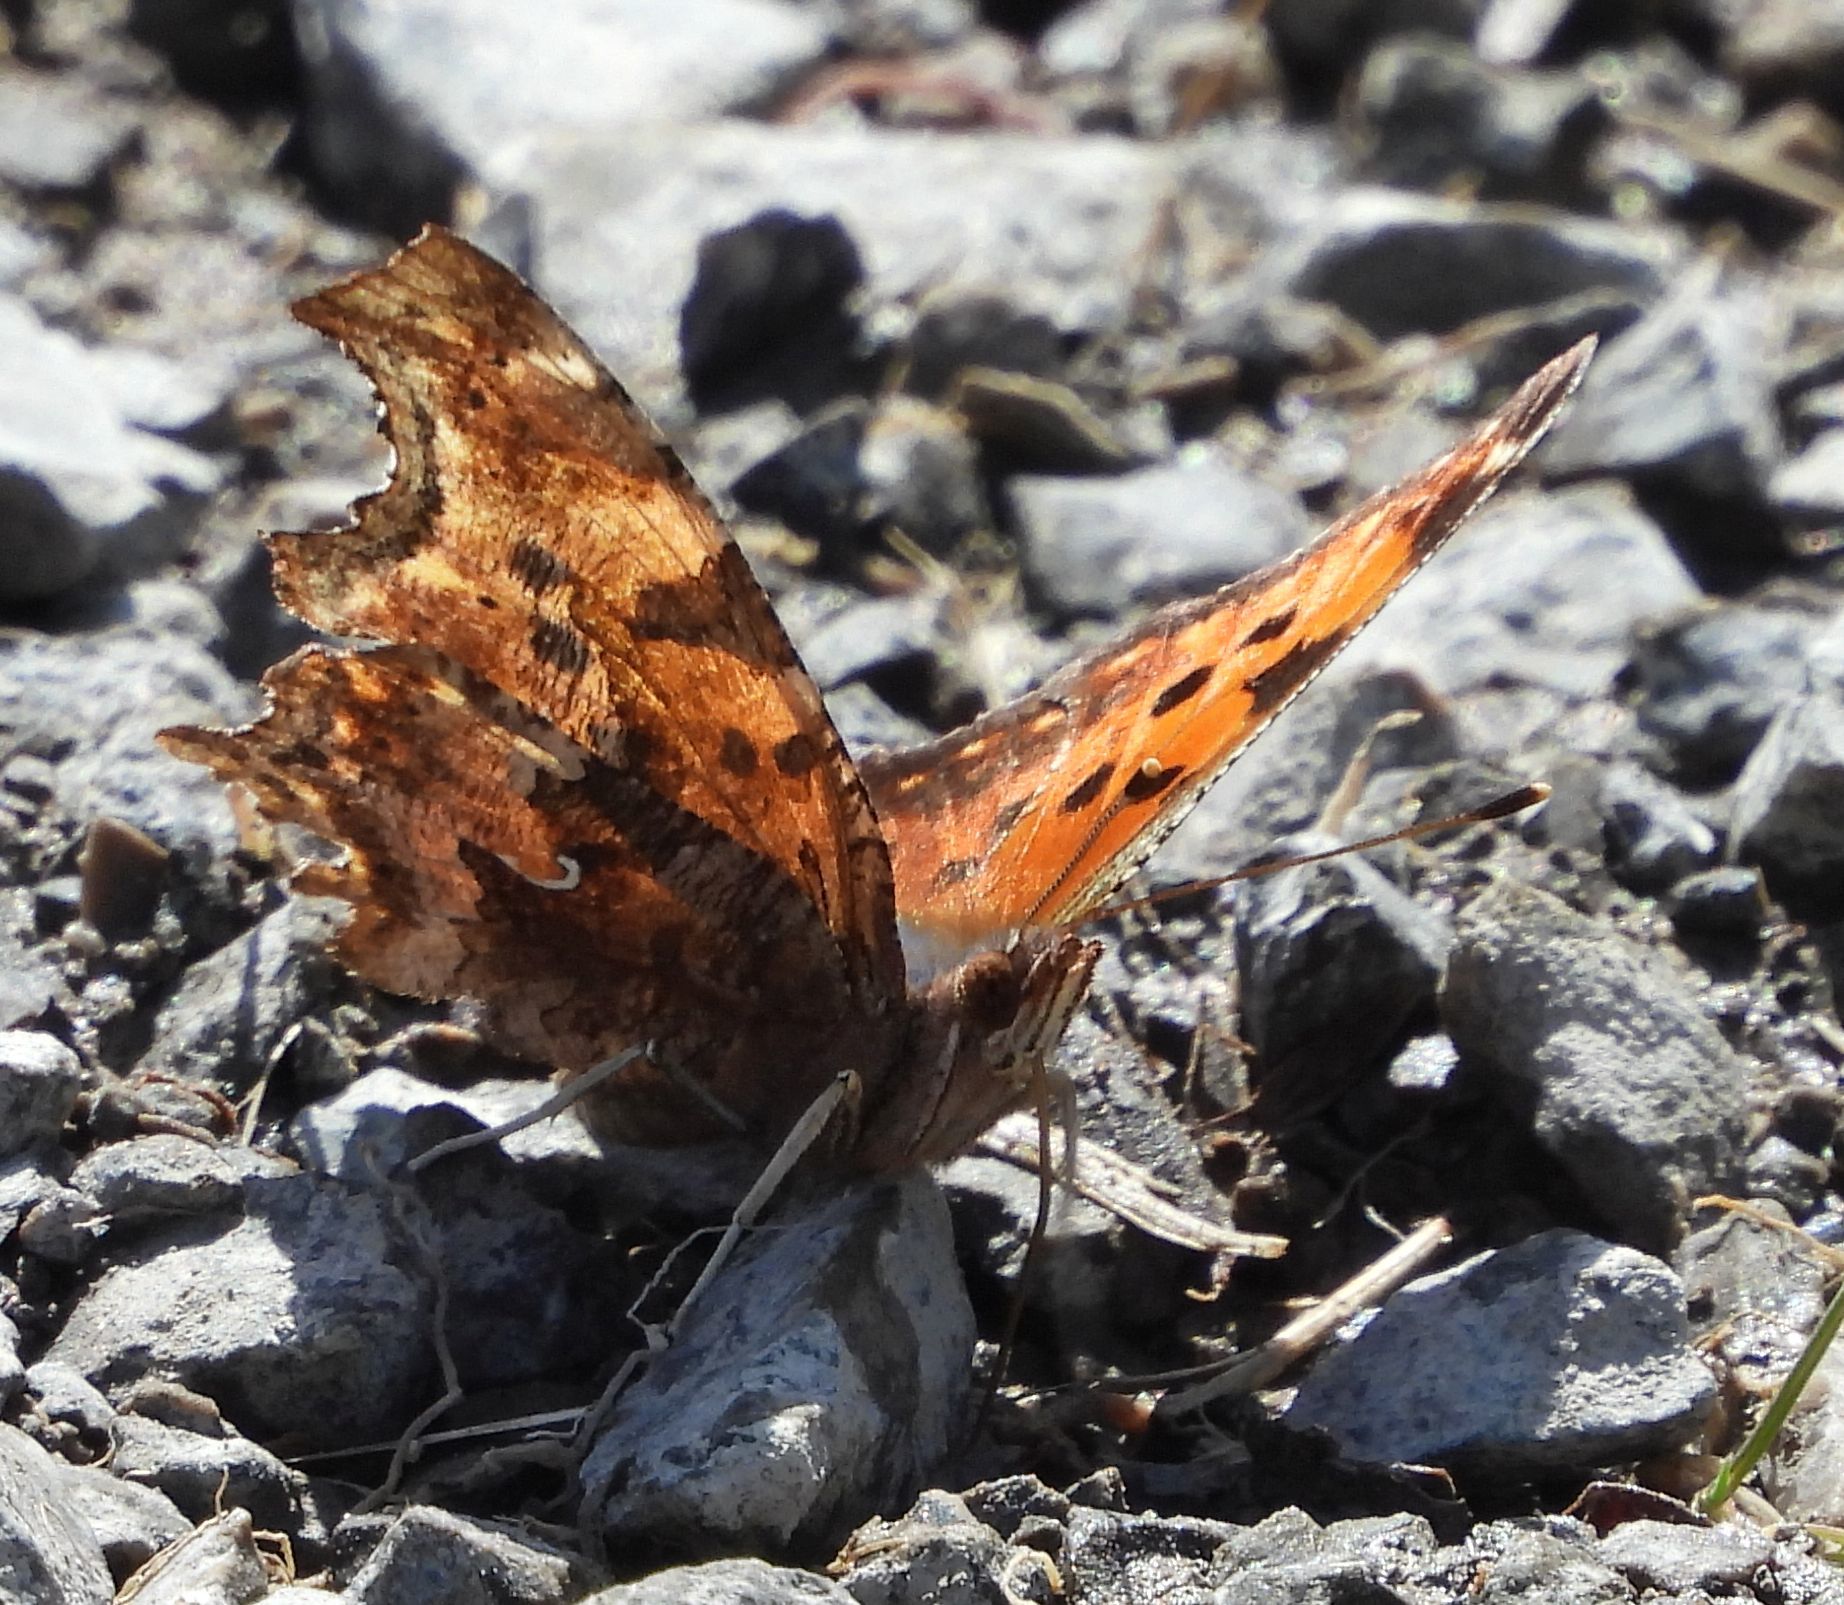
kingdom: Animalia
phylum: Arthropoda
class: Insecta
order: Lepidoptera
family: Nymphalidae
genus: Polygonia
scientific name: Polygonia comma
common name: Eastern comma
